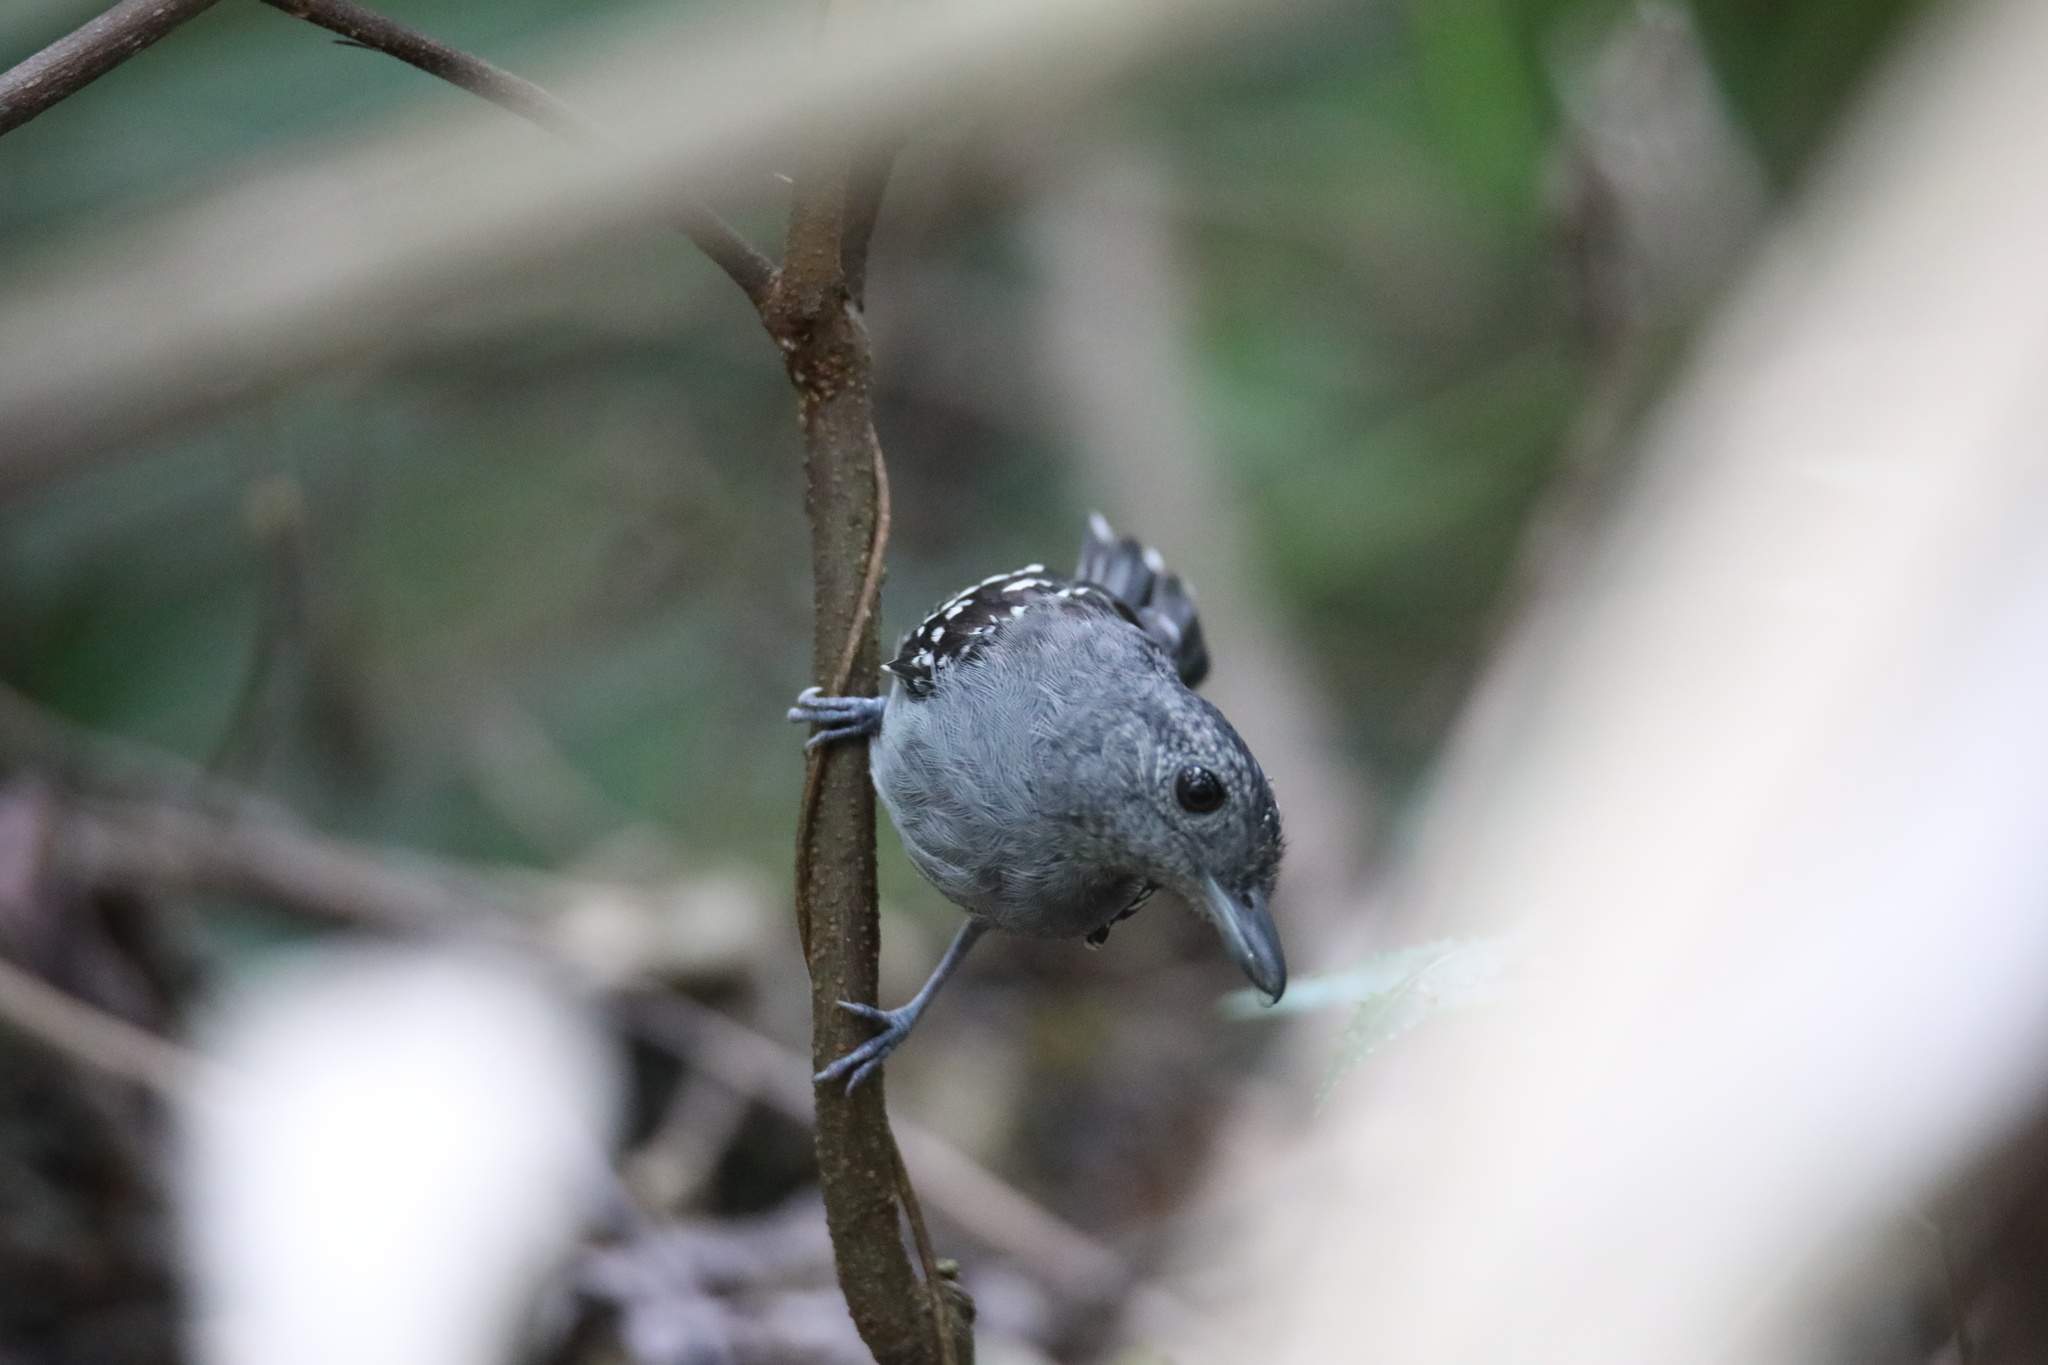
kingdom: Animalia
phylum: Chordata
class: Aves
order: Passeriformes
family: Thamnophilidae
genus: Thamnophilus
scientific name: Thamnophilus atrinucha
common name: Black-crowned antshrike
